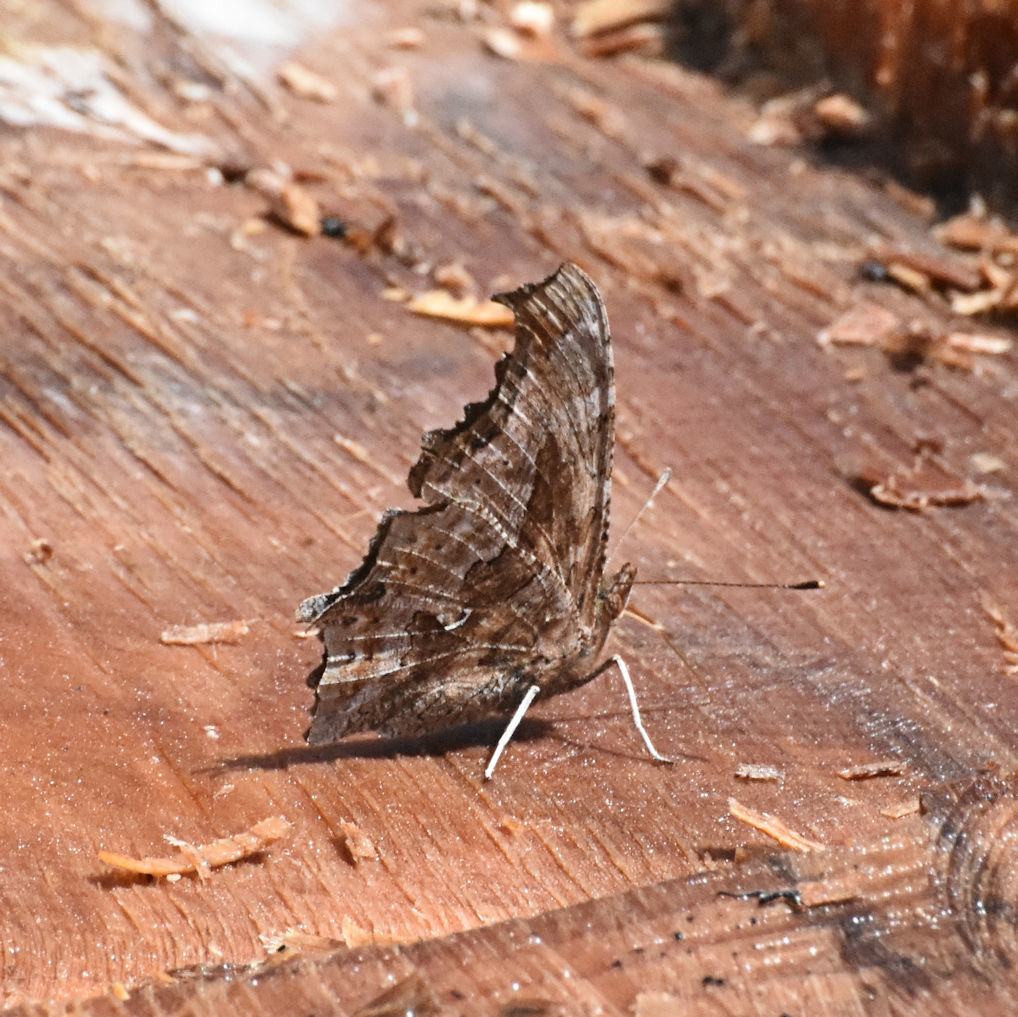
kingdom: Animalia
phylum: Arthropoda
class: Insecta
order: Lepidoptera
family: Nymphalidae
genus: Polygonia
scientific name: Polygonia comma
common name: Eastern comma
